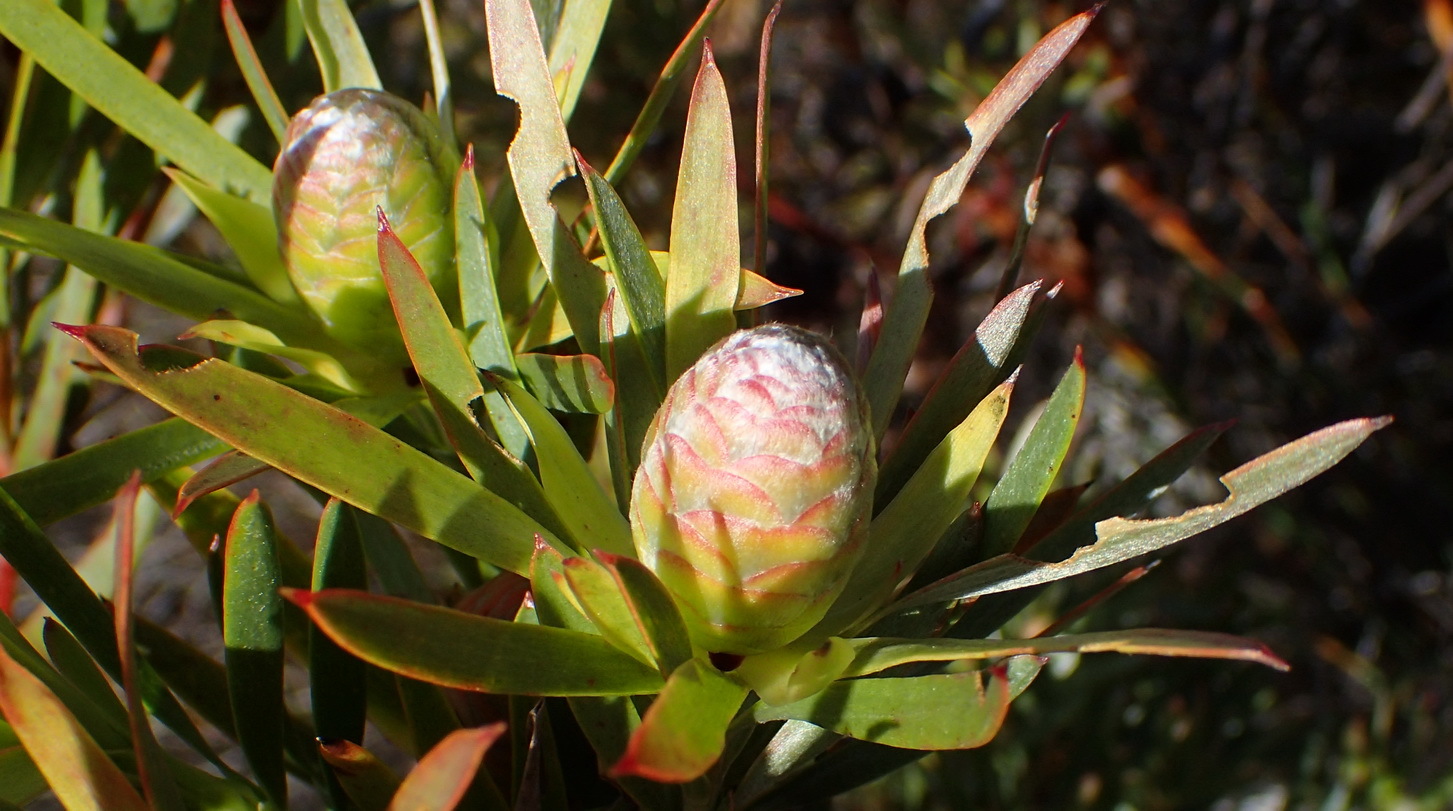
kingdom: Plantae
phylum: Tracheophyta
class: Magnoliopsida
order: Proteales
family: Proteaceae
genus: Leucadendron
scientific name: Leucadendron xanthoconus
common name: Sickle-leaf conebush
